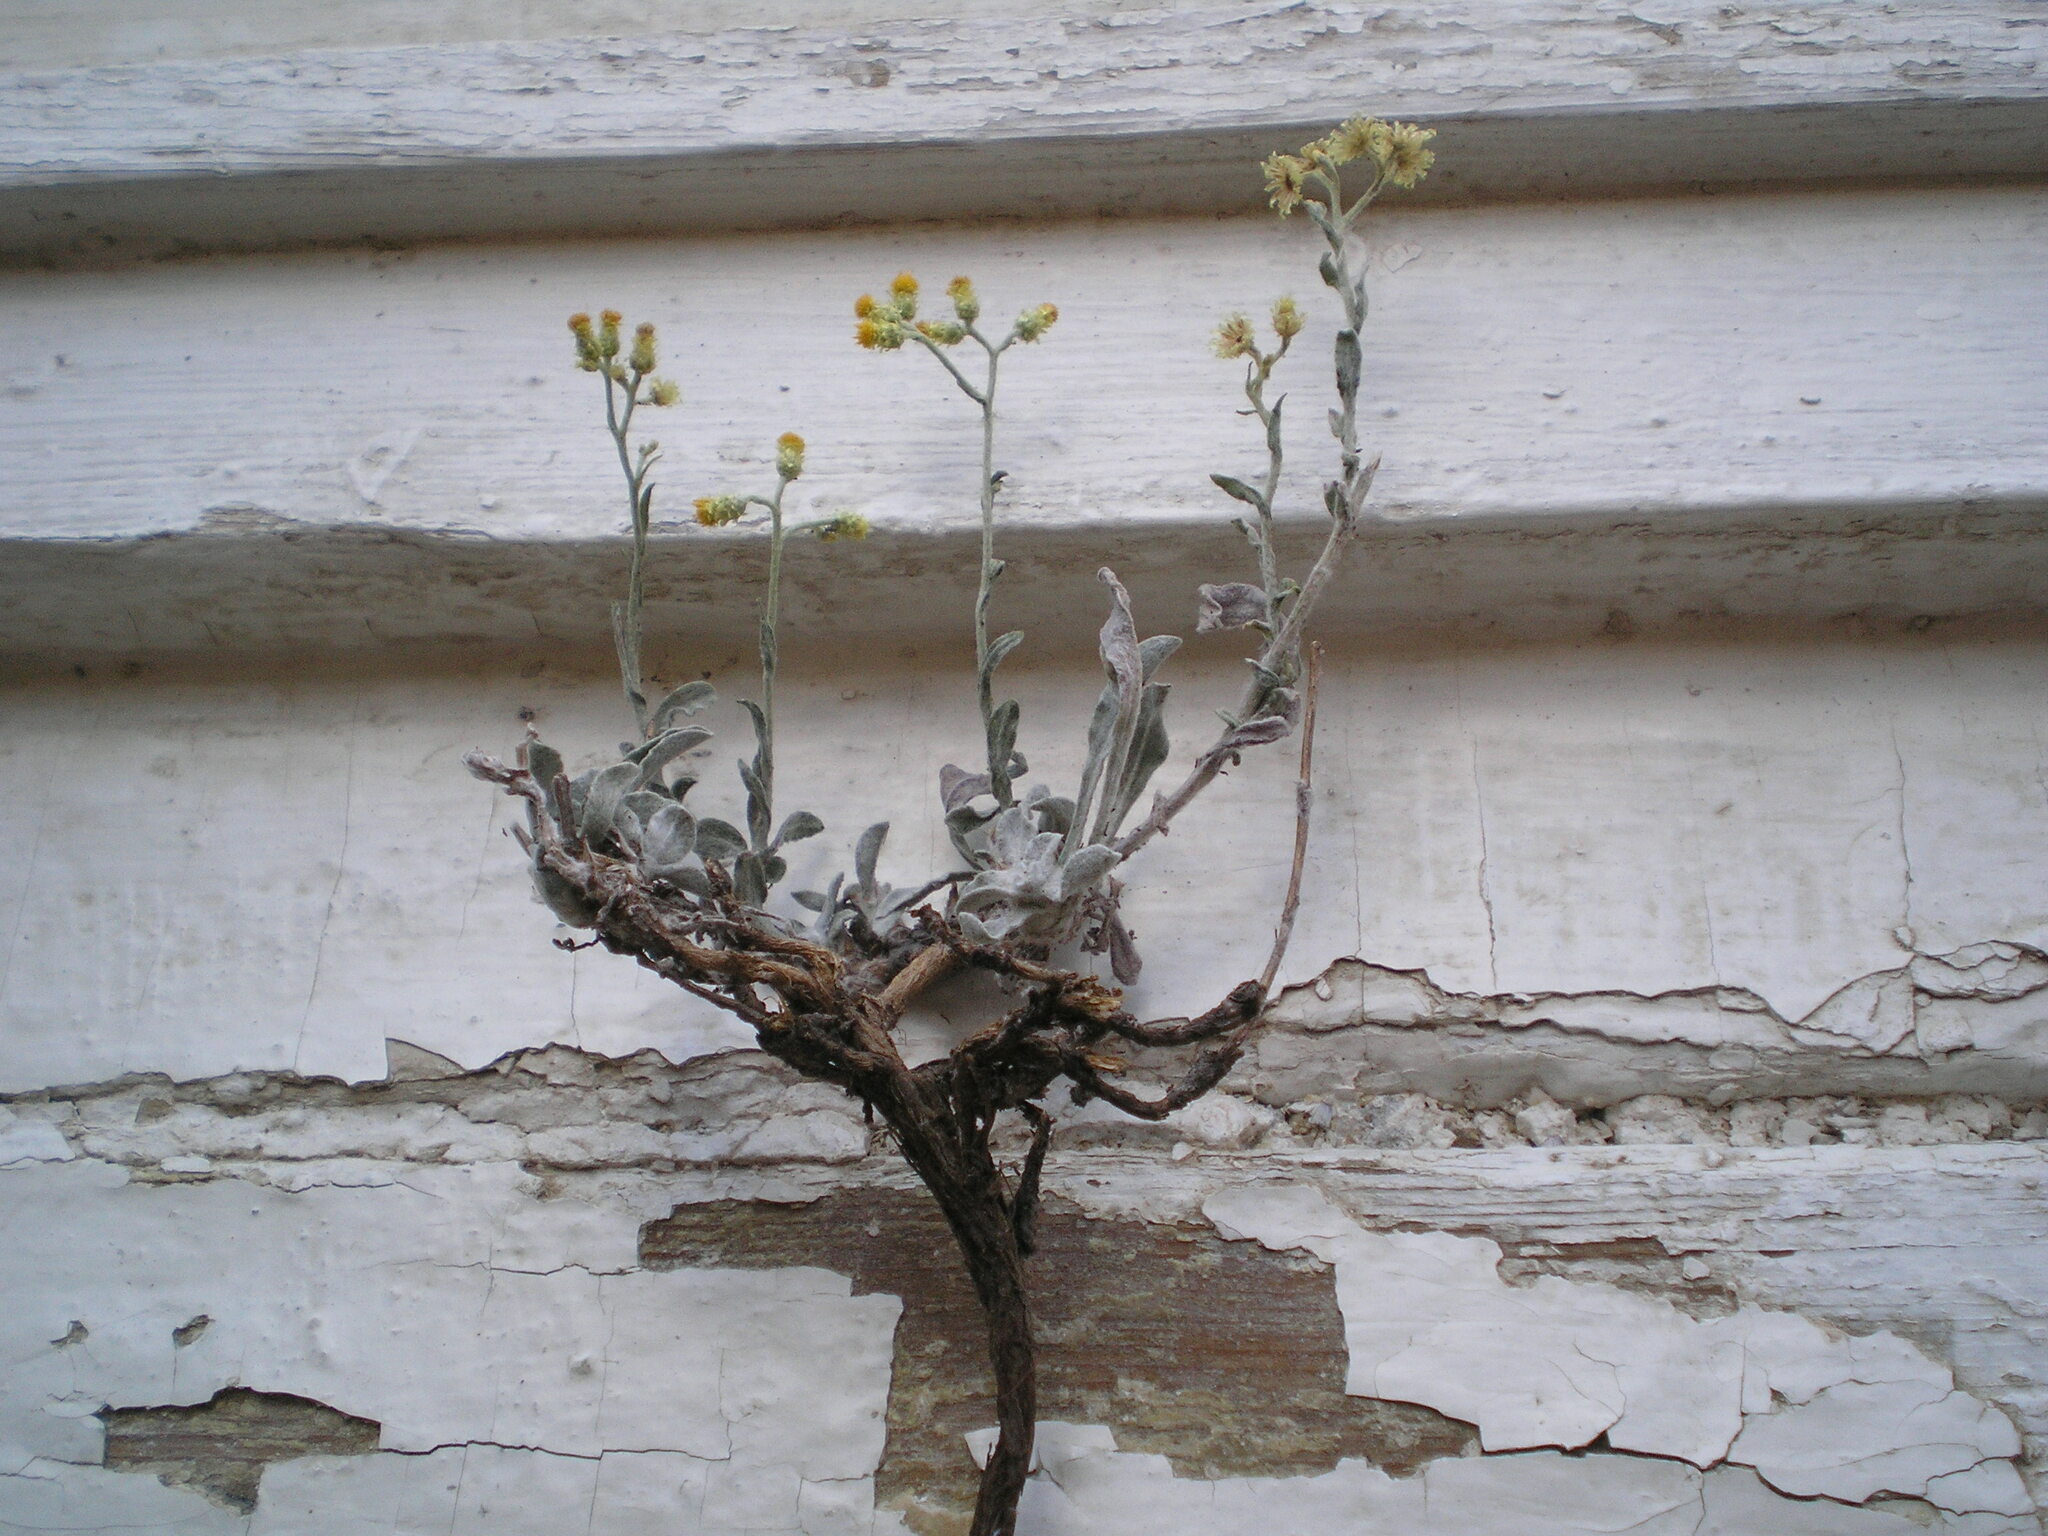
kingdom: Plantae
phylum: Tracheophyta
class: Magnoliopsida
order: Asterales
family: Asteraceae
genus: Helichrysum
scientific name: Helichrysum arenarium
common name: Strawflower
